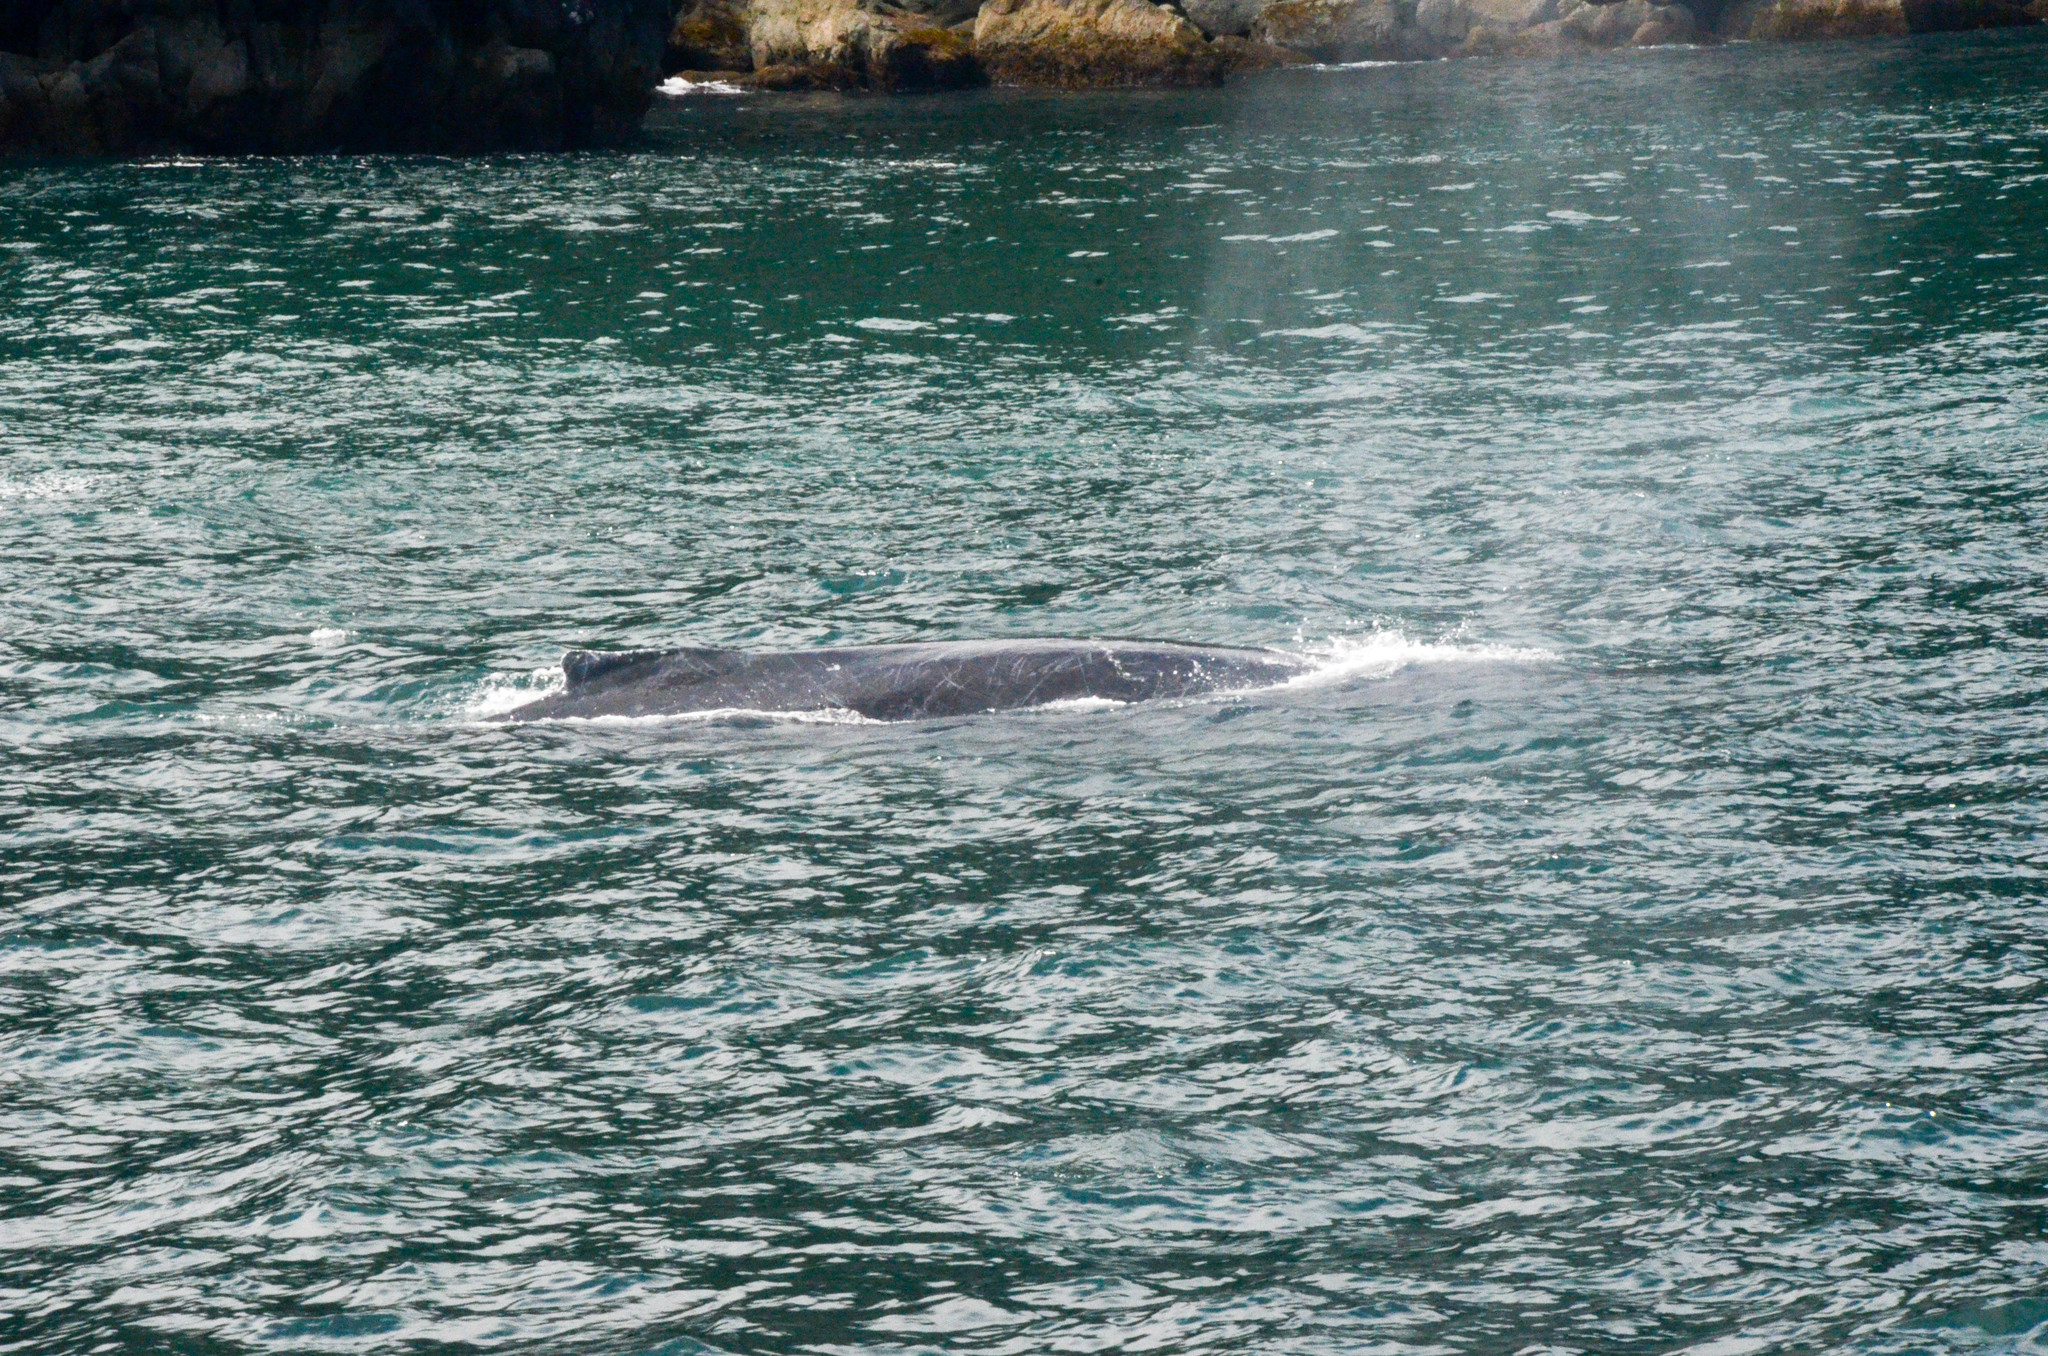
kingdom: Animalia
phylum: Chordata
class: Mammalia
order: Cetacea
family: Balaenopteridae
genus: Megaptera
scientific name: Megaptera novaeangliae
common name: Humpback whale
